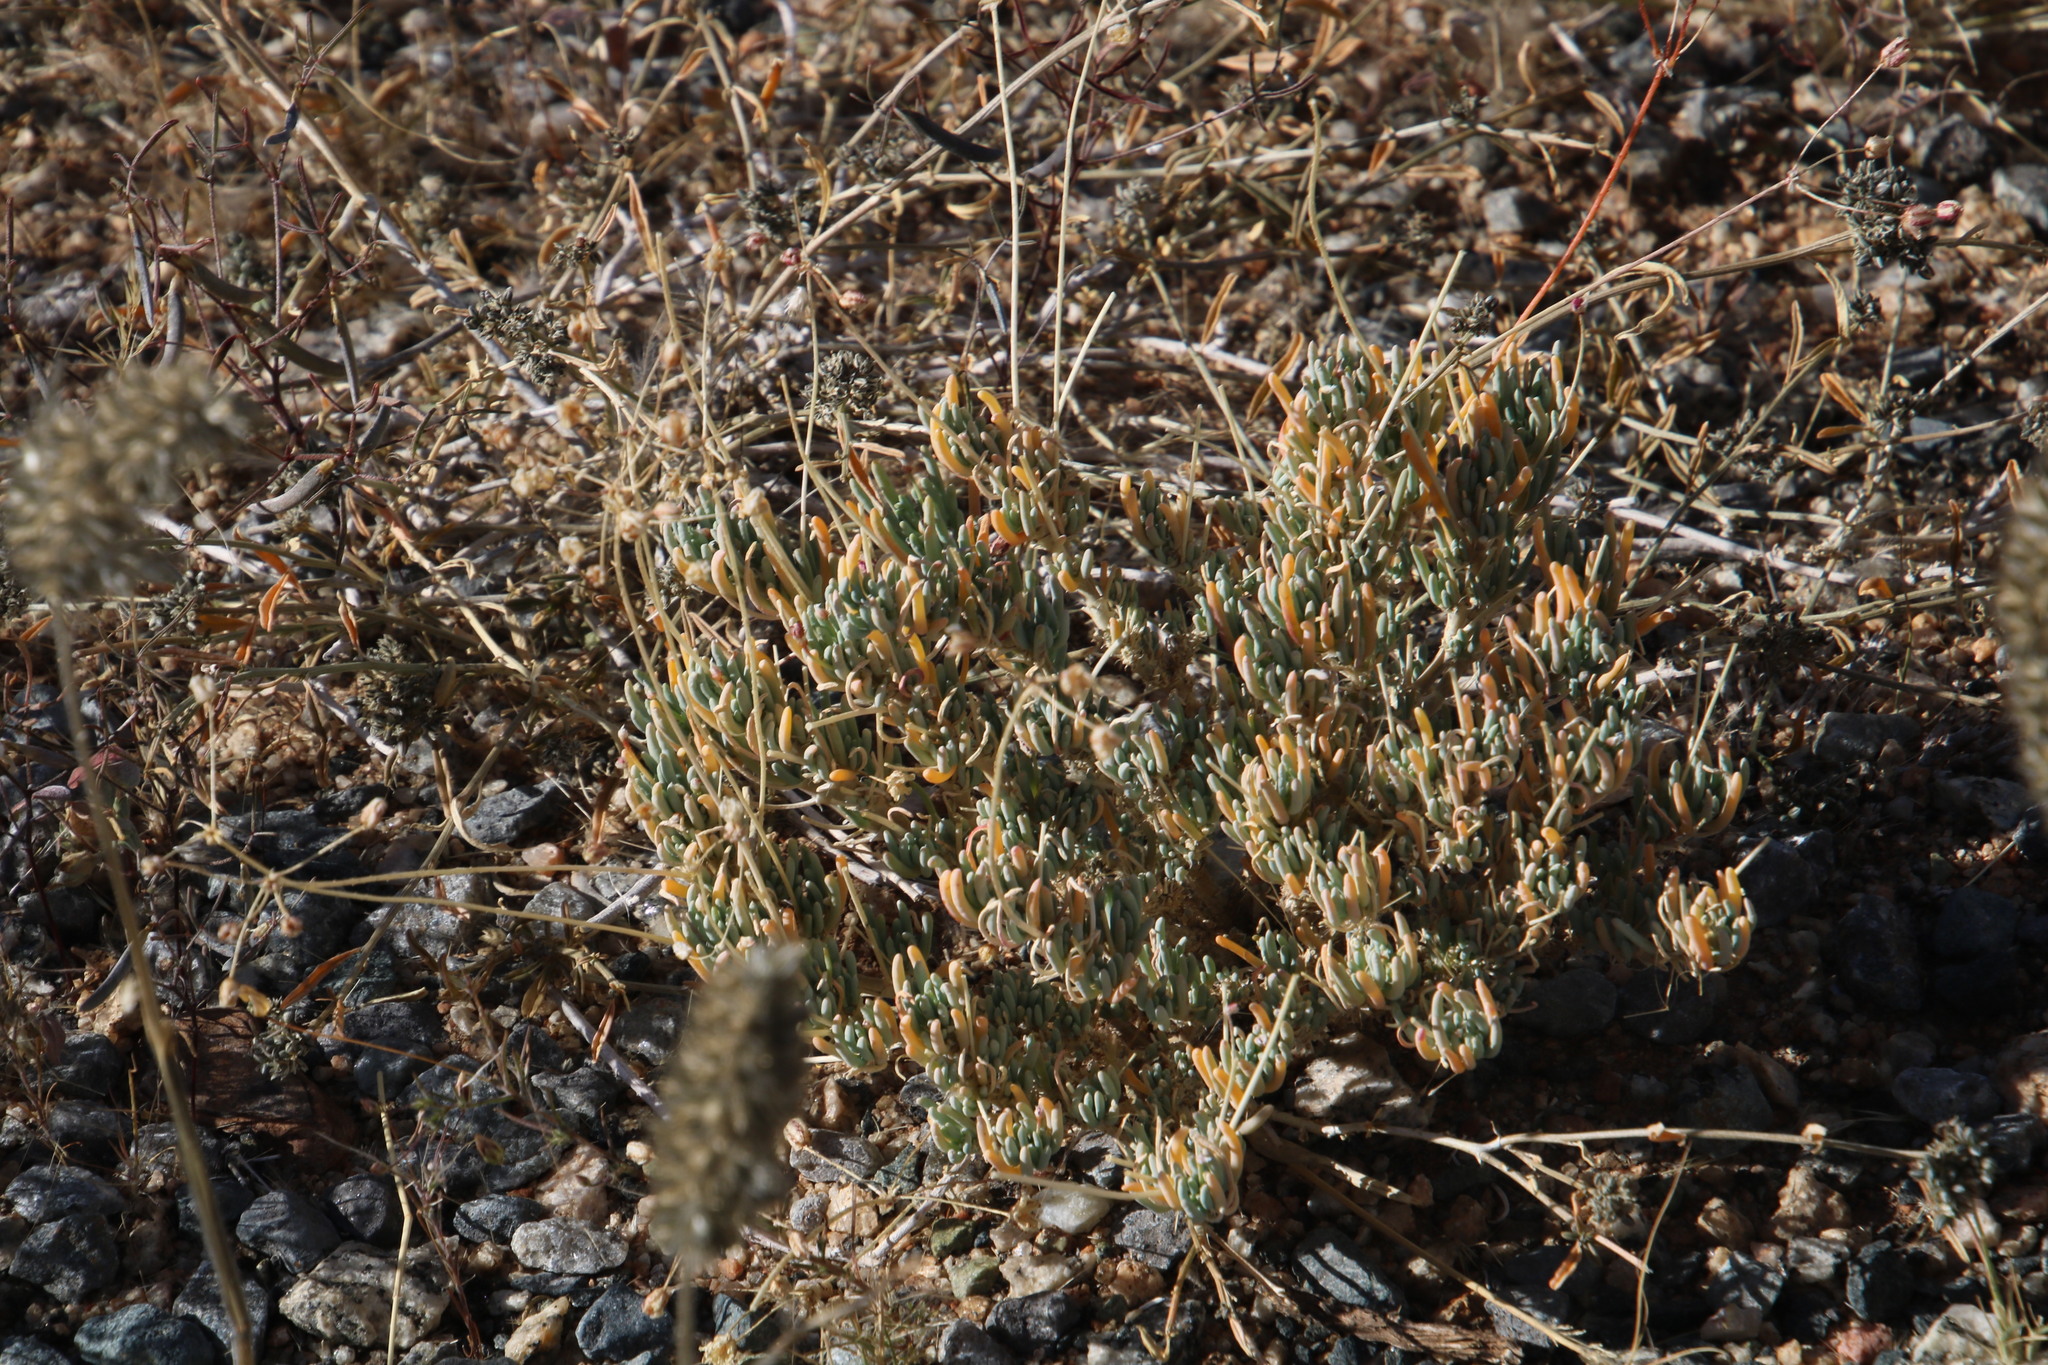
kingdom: Plantae
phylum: Tracheophyta
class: Magnoliopsida
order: Caryophyllales
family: Kewaceae
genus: Kewa
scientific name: Kewa salsoloides
